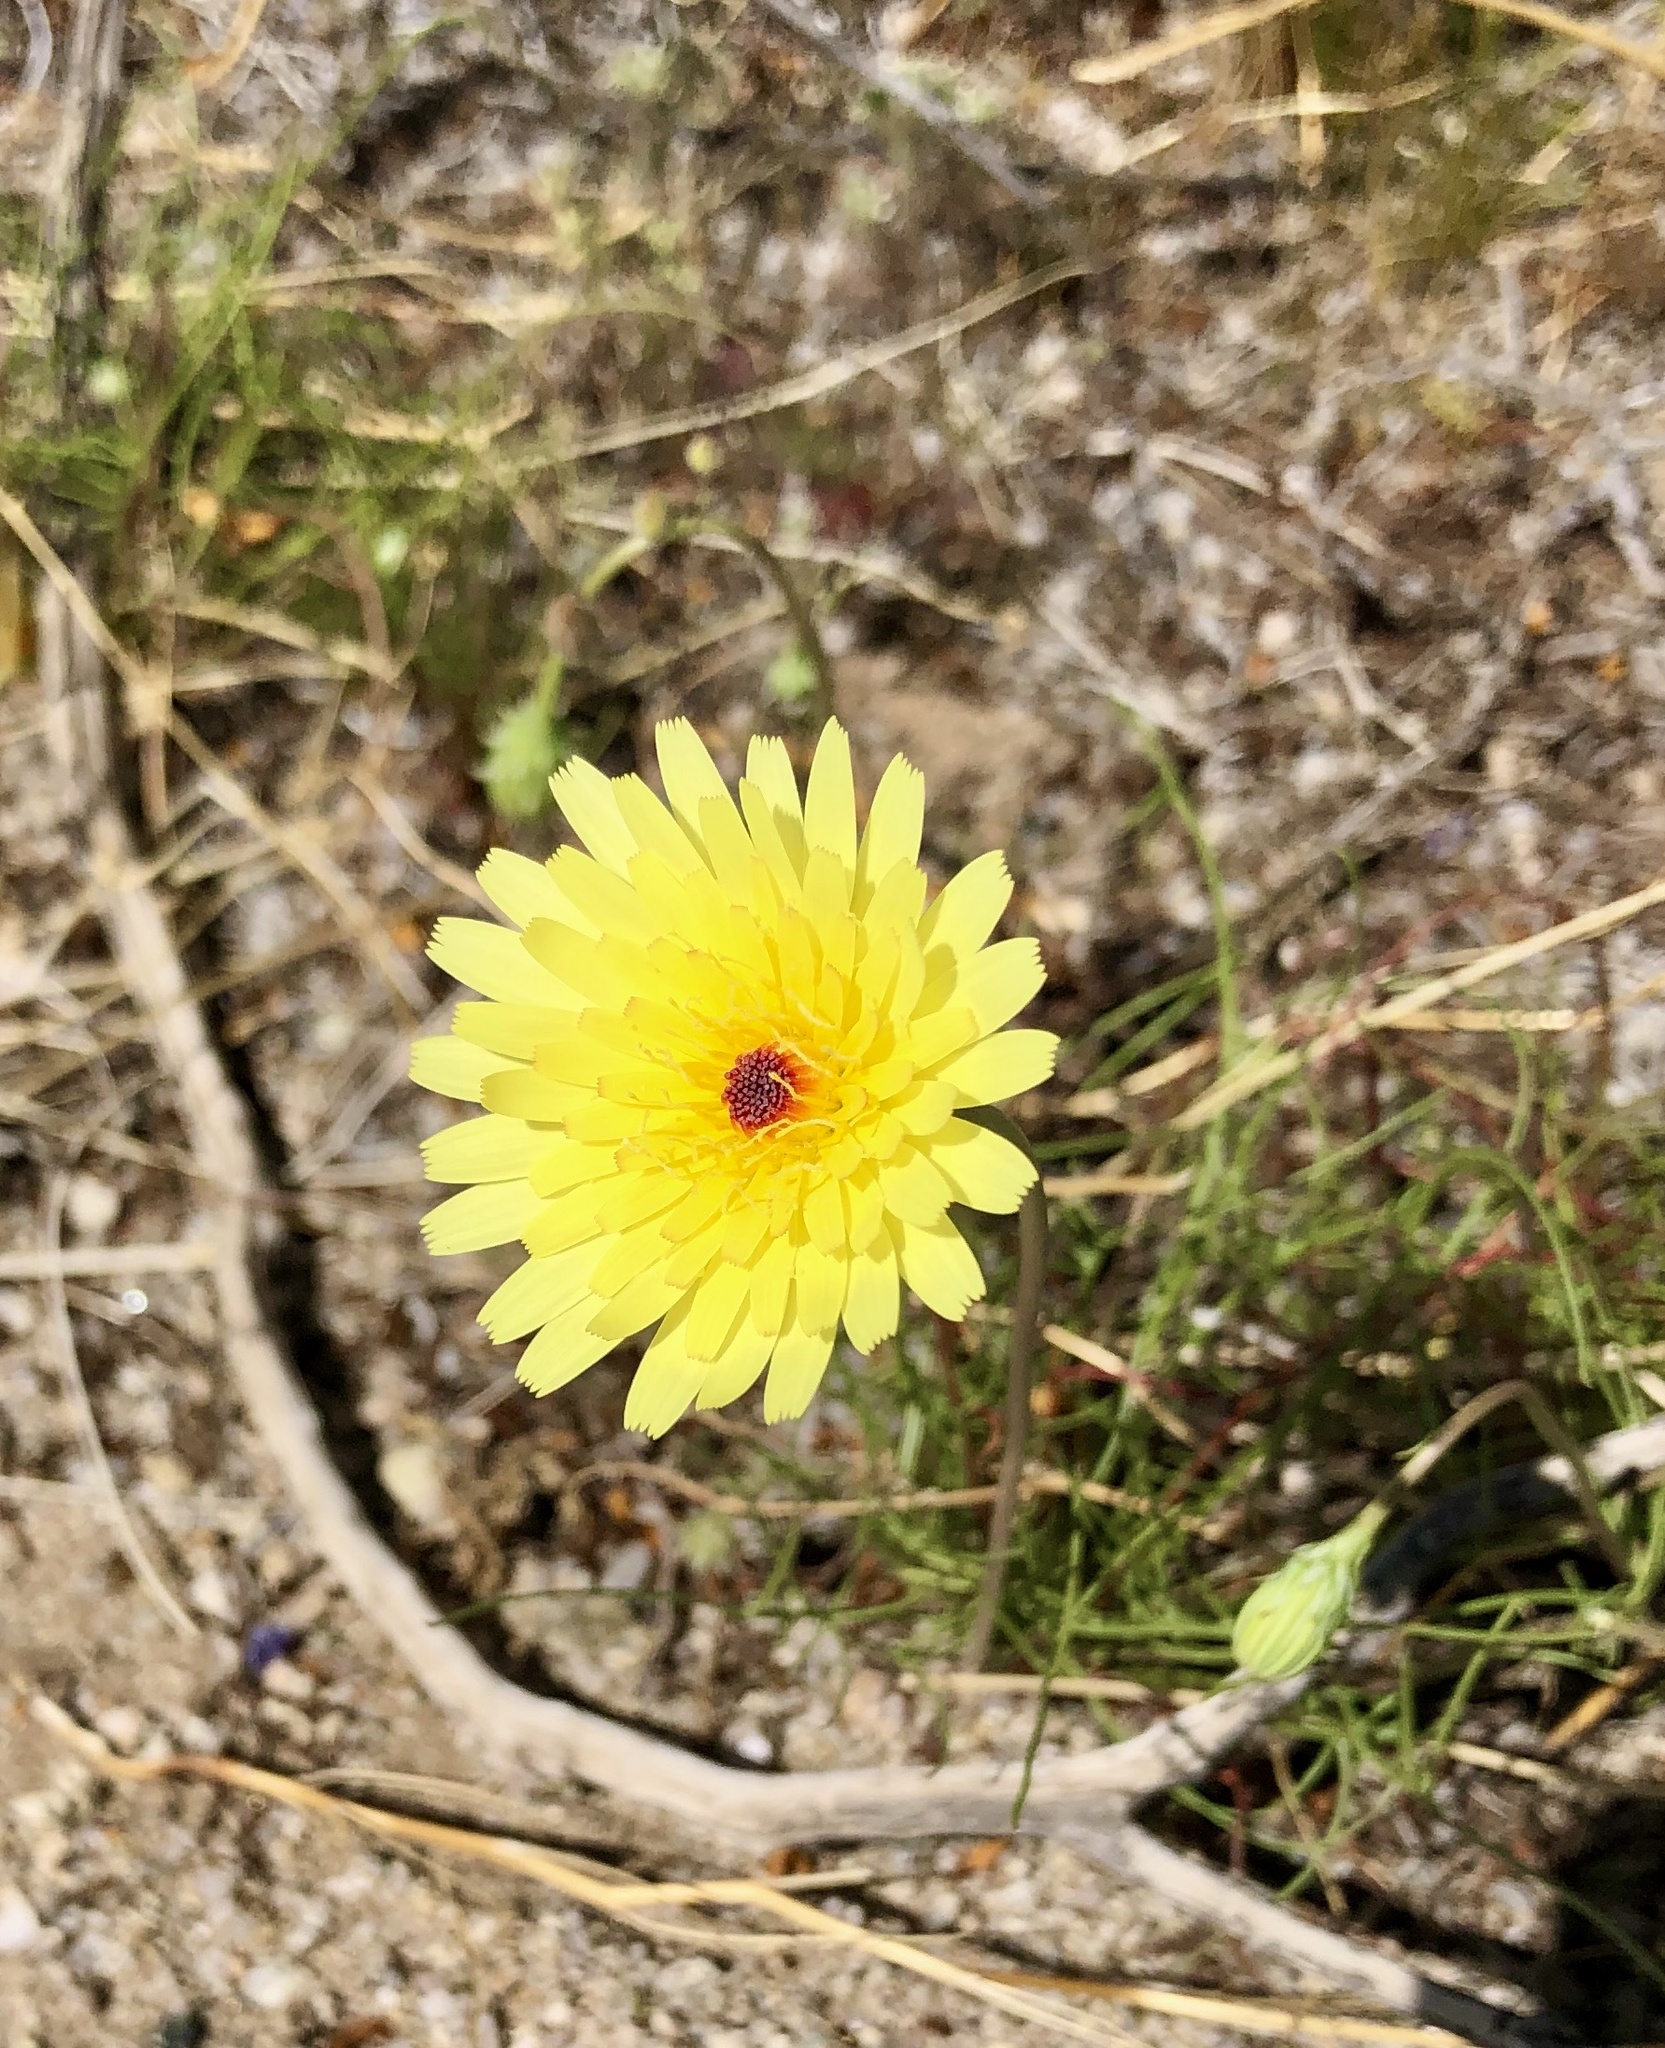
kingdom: Plantae
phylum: Tracheophyta
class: Magnoliopsida
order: Asterales
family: Asteraceae
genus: Malacothrix
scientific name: Malacothrix glabrata
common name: Smooth desert-dandelion
